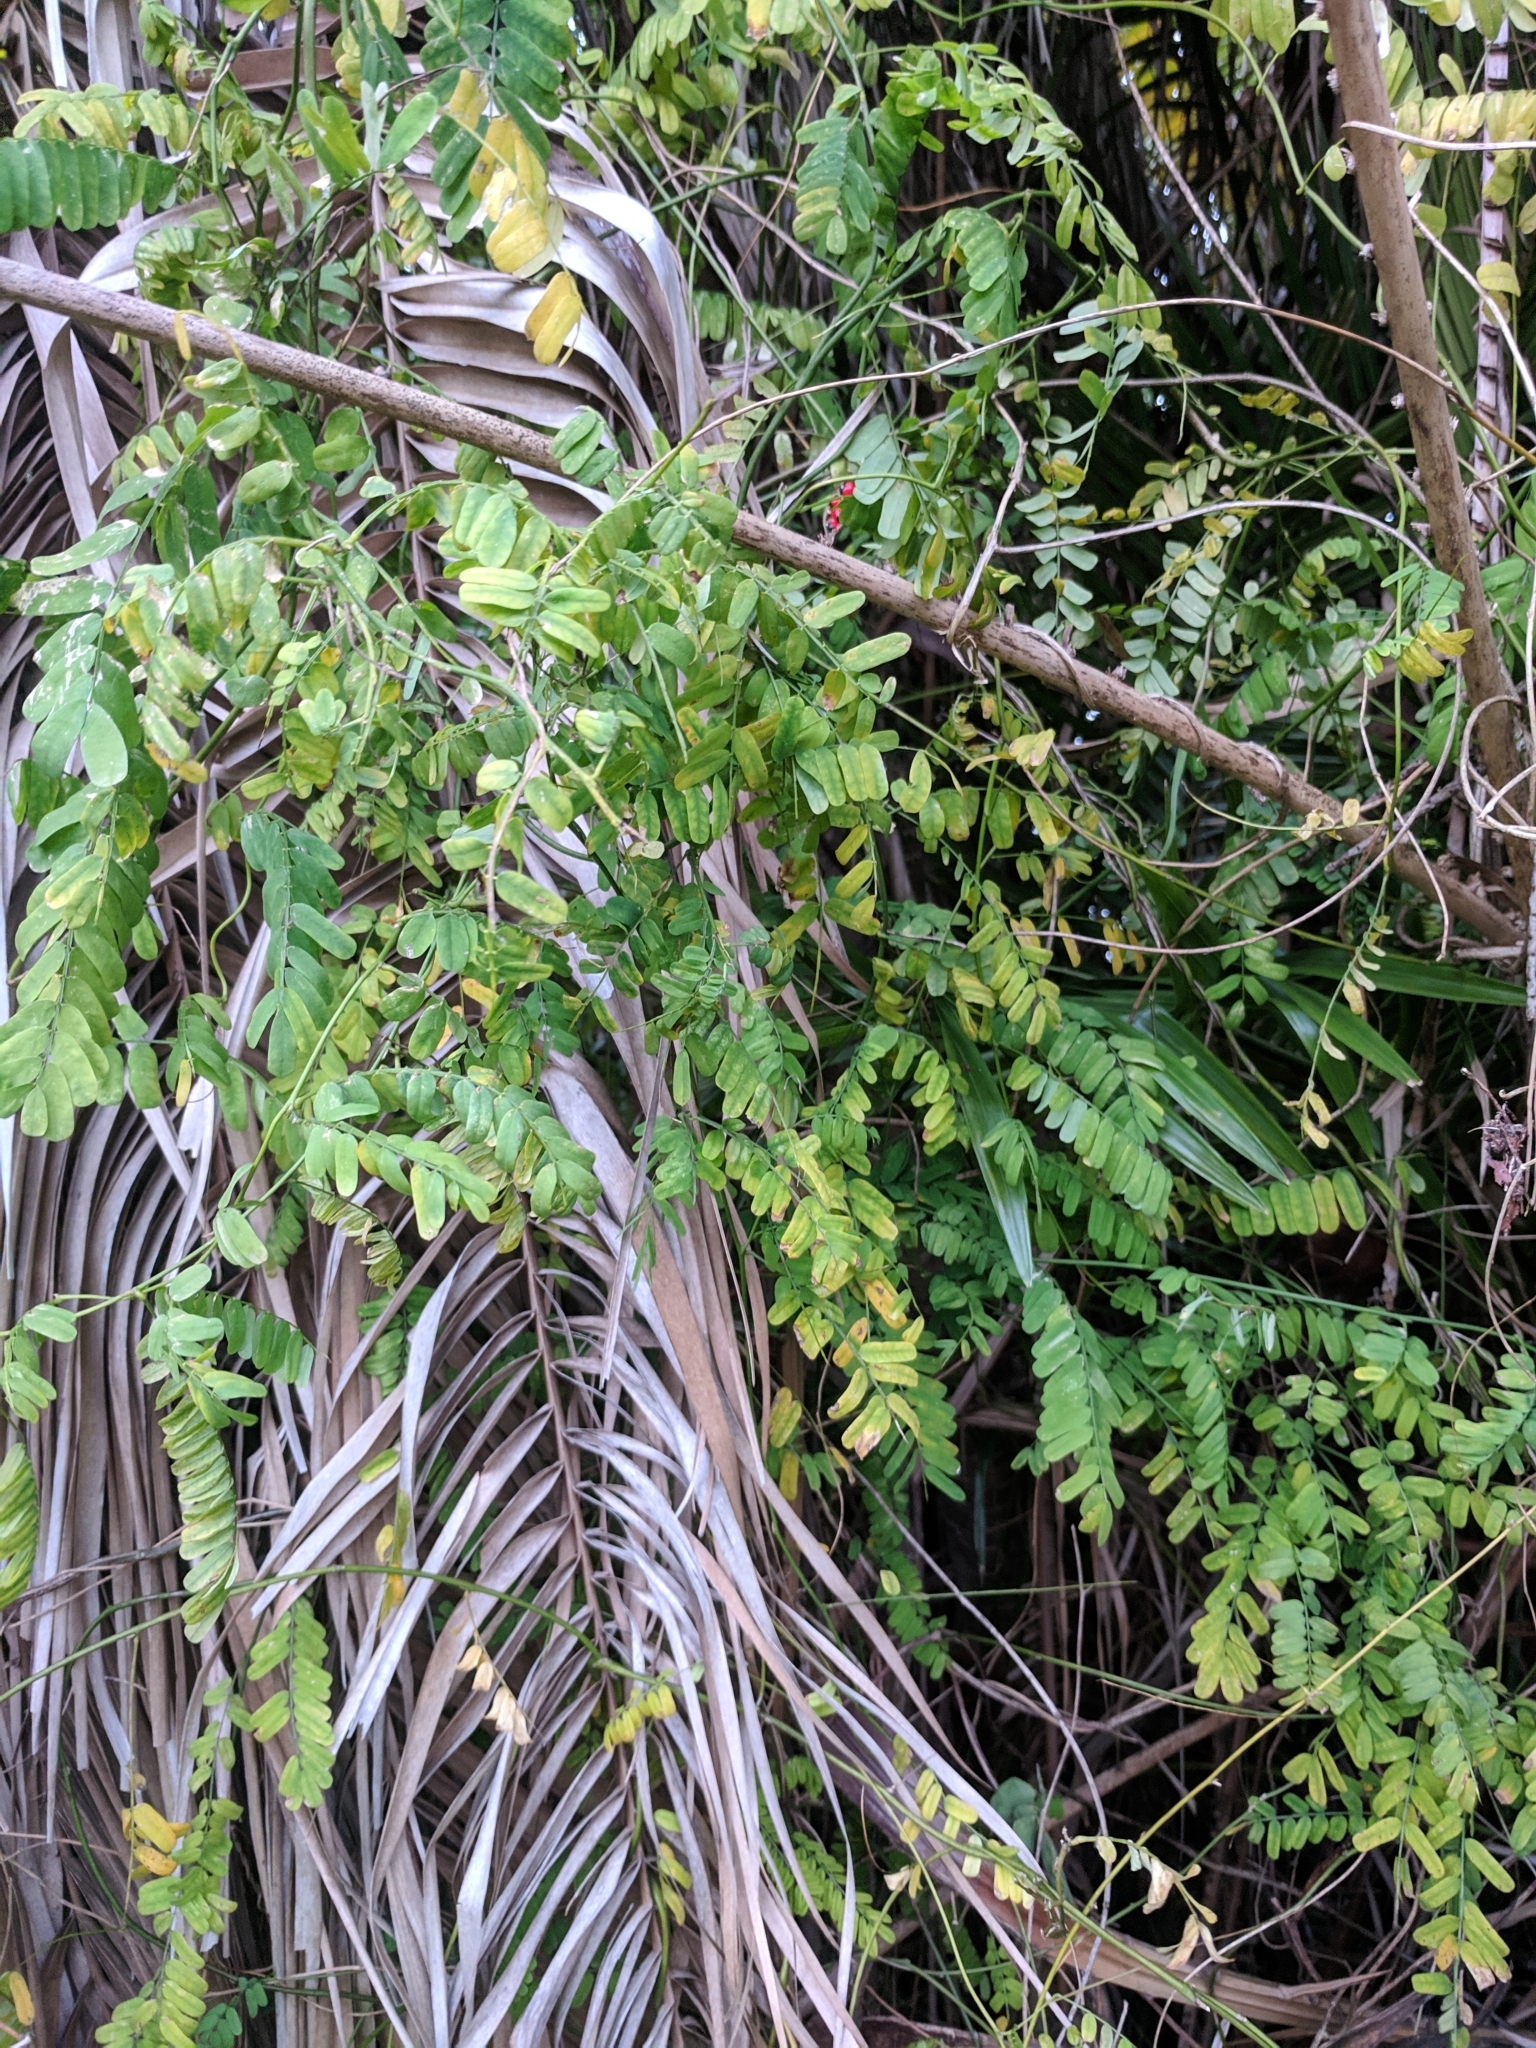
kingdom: Plantae
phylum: Tracheophyta
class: Magnoliopsida
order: Fabales
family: Fabaceae
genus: Abrus
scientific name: Abrus precatorius
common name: Rosarypea
